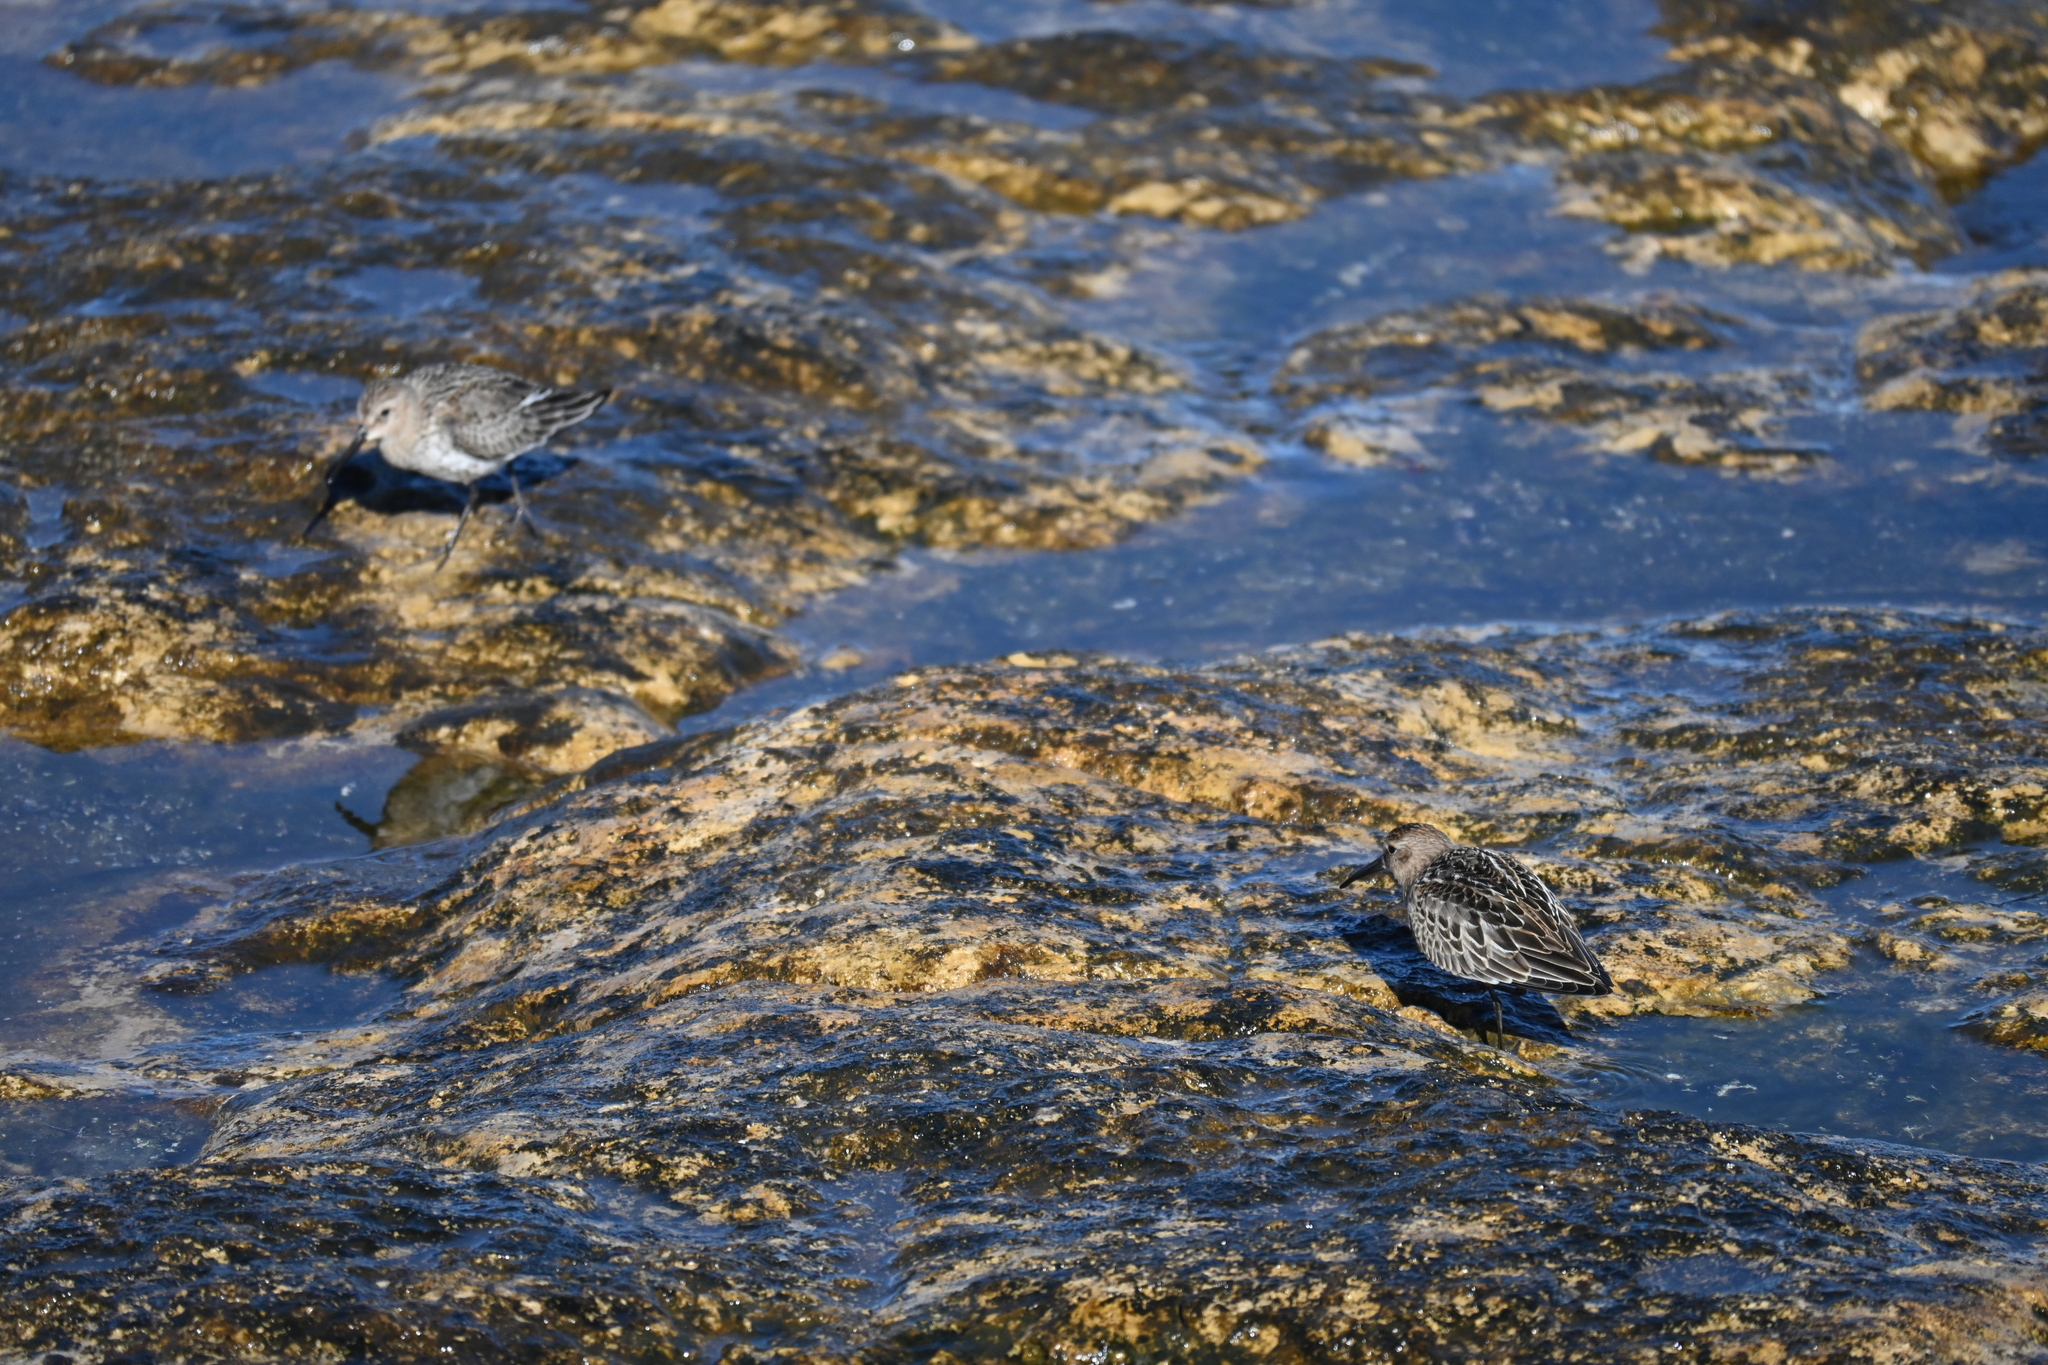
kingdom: Animalia
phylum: Chordata
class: Aves
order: Charadriiformes
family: Scolopacidae
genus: Calidris
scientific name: Calidris alpina
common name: Dunlin
